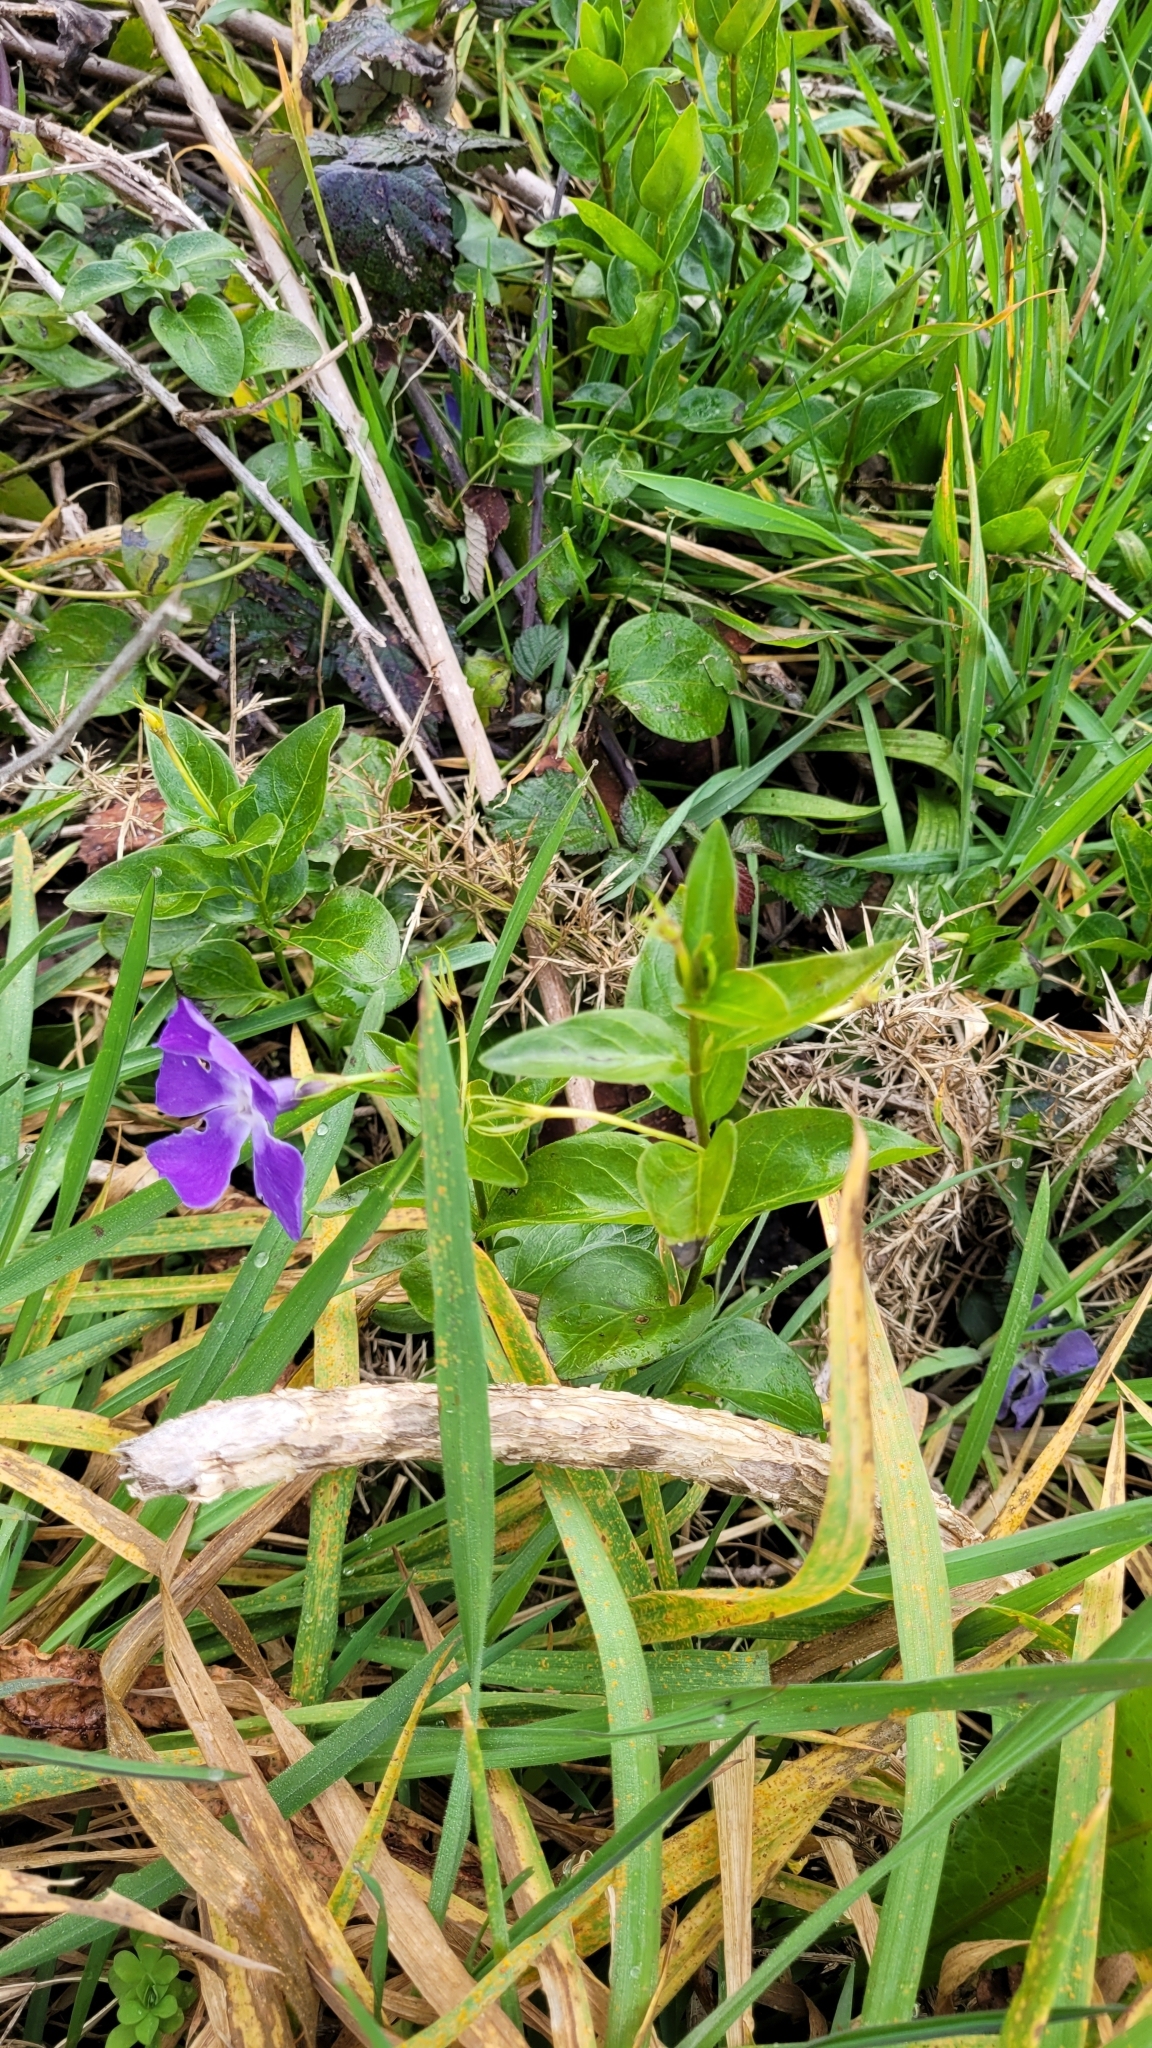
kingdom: Plantae
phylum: Tracheophyta
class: Magnoliopsida
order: Gentianales
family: Apocynaceae
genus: Vinca
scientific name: Vinca major
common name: Greater periwinkle
